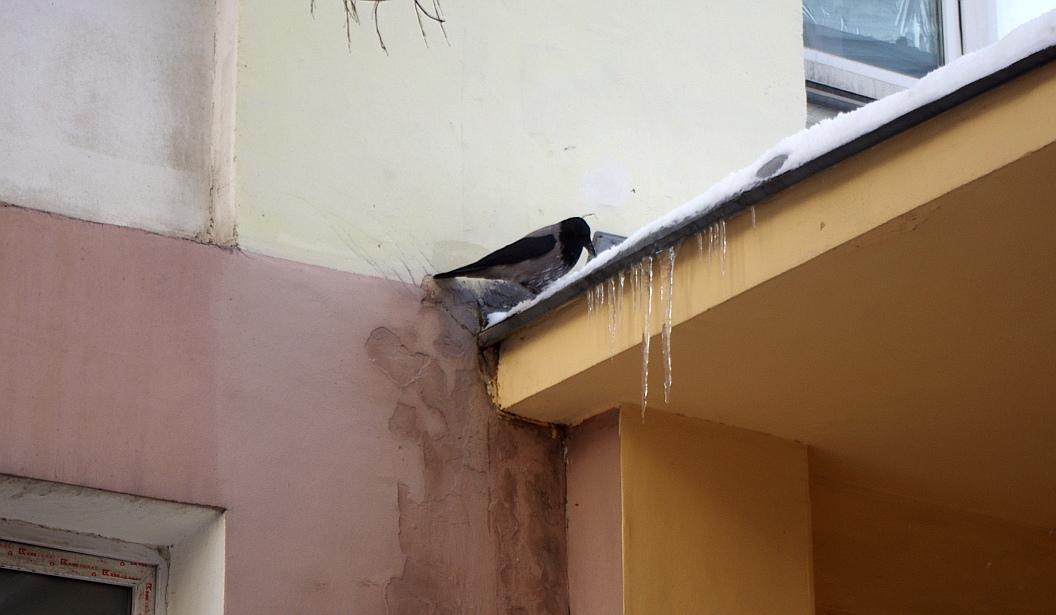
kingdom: Animalia
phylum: Chordata
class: Aves
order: Passeriformes
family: Corvidae
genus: Corvus
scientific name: Corvus cornix
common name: Hooded crow
